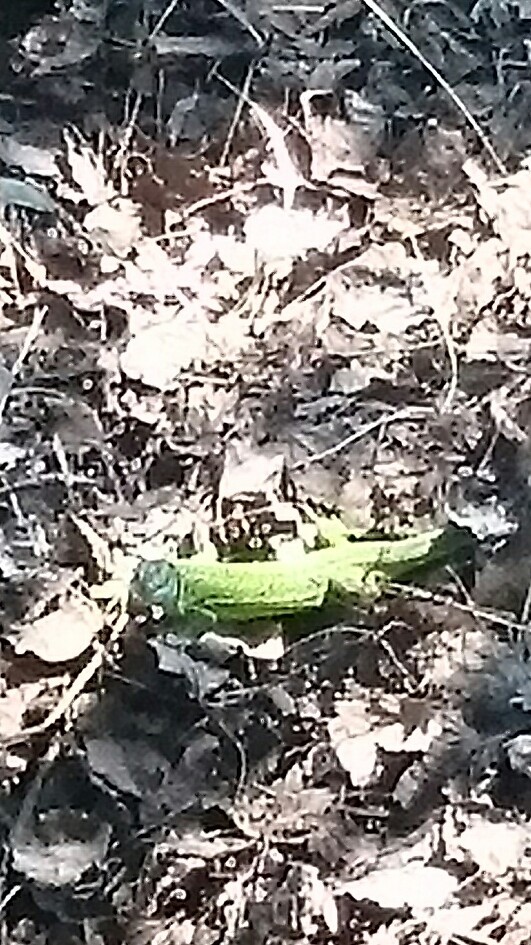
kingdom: Animalia
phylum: Chordata
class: Squamata
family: Lacertidae
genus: Lacerta
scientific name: Lacerta bilineata
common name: Western green lizard
